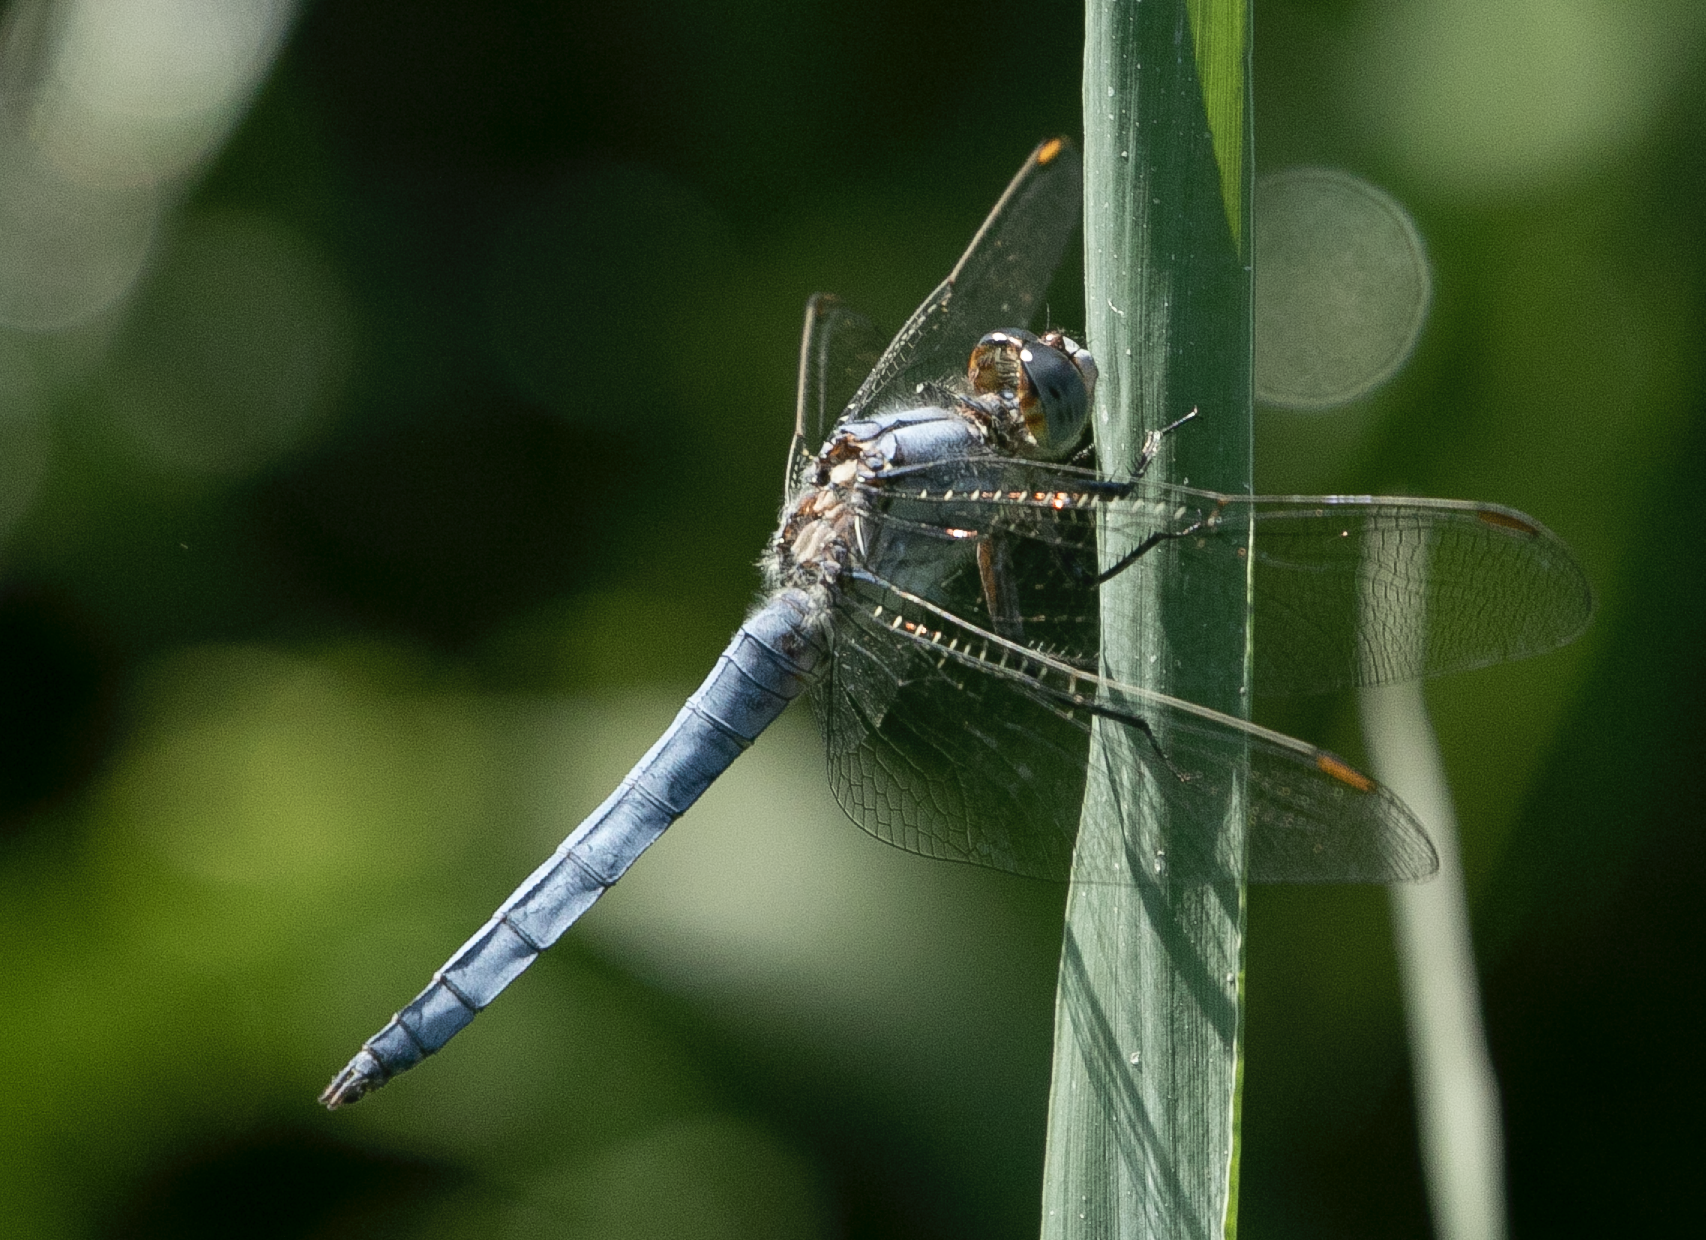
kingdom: Animalia
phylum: Arthropoda
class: Insecta
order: Odonata
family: Libellulidae
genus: Orthetrum
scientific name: Orthetrum brunneum
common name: Southern skimmer
